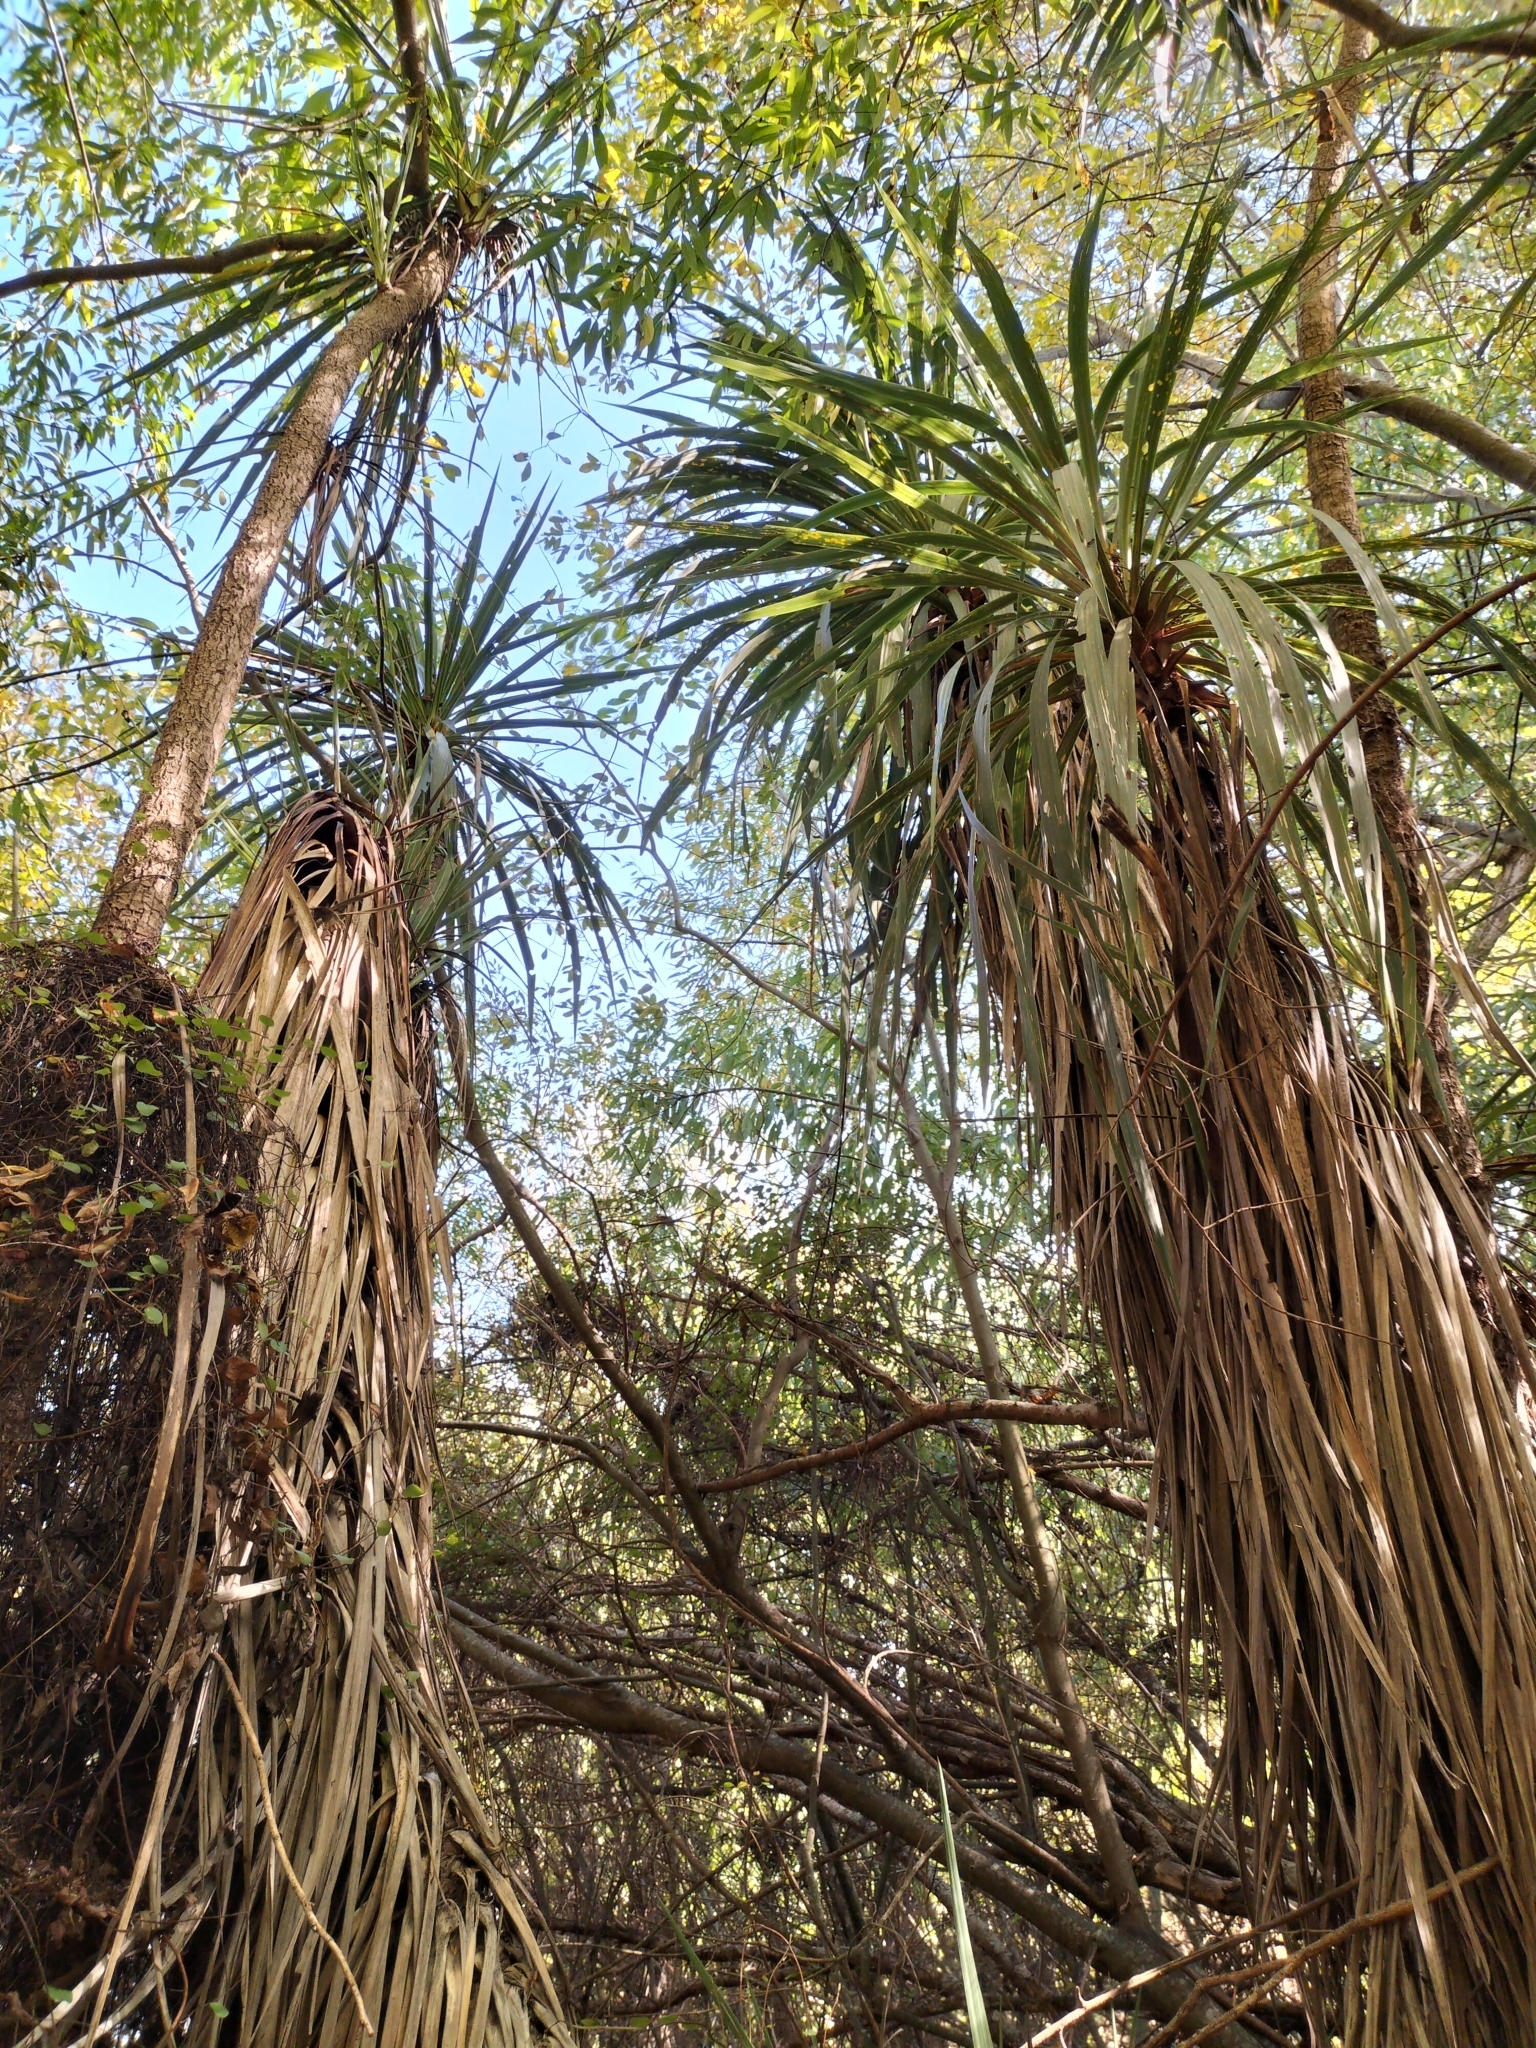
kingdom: Plantae
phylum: Tracheophyta
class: Liliopsida
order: Asparagales
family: Asparagaceae
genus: Cordyline
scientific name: Cordyline australis
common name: Cabbage-palm
